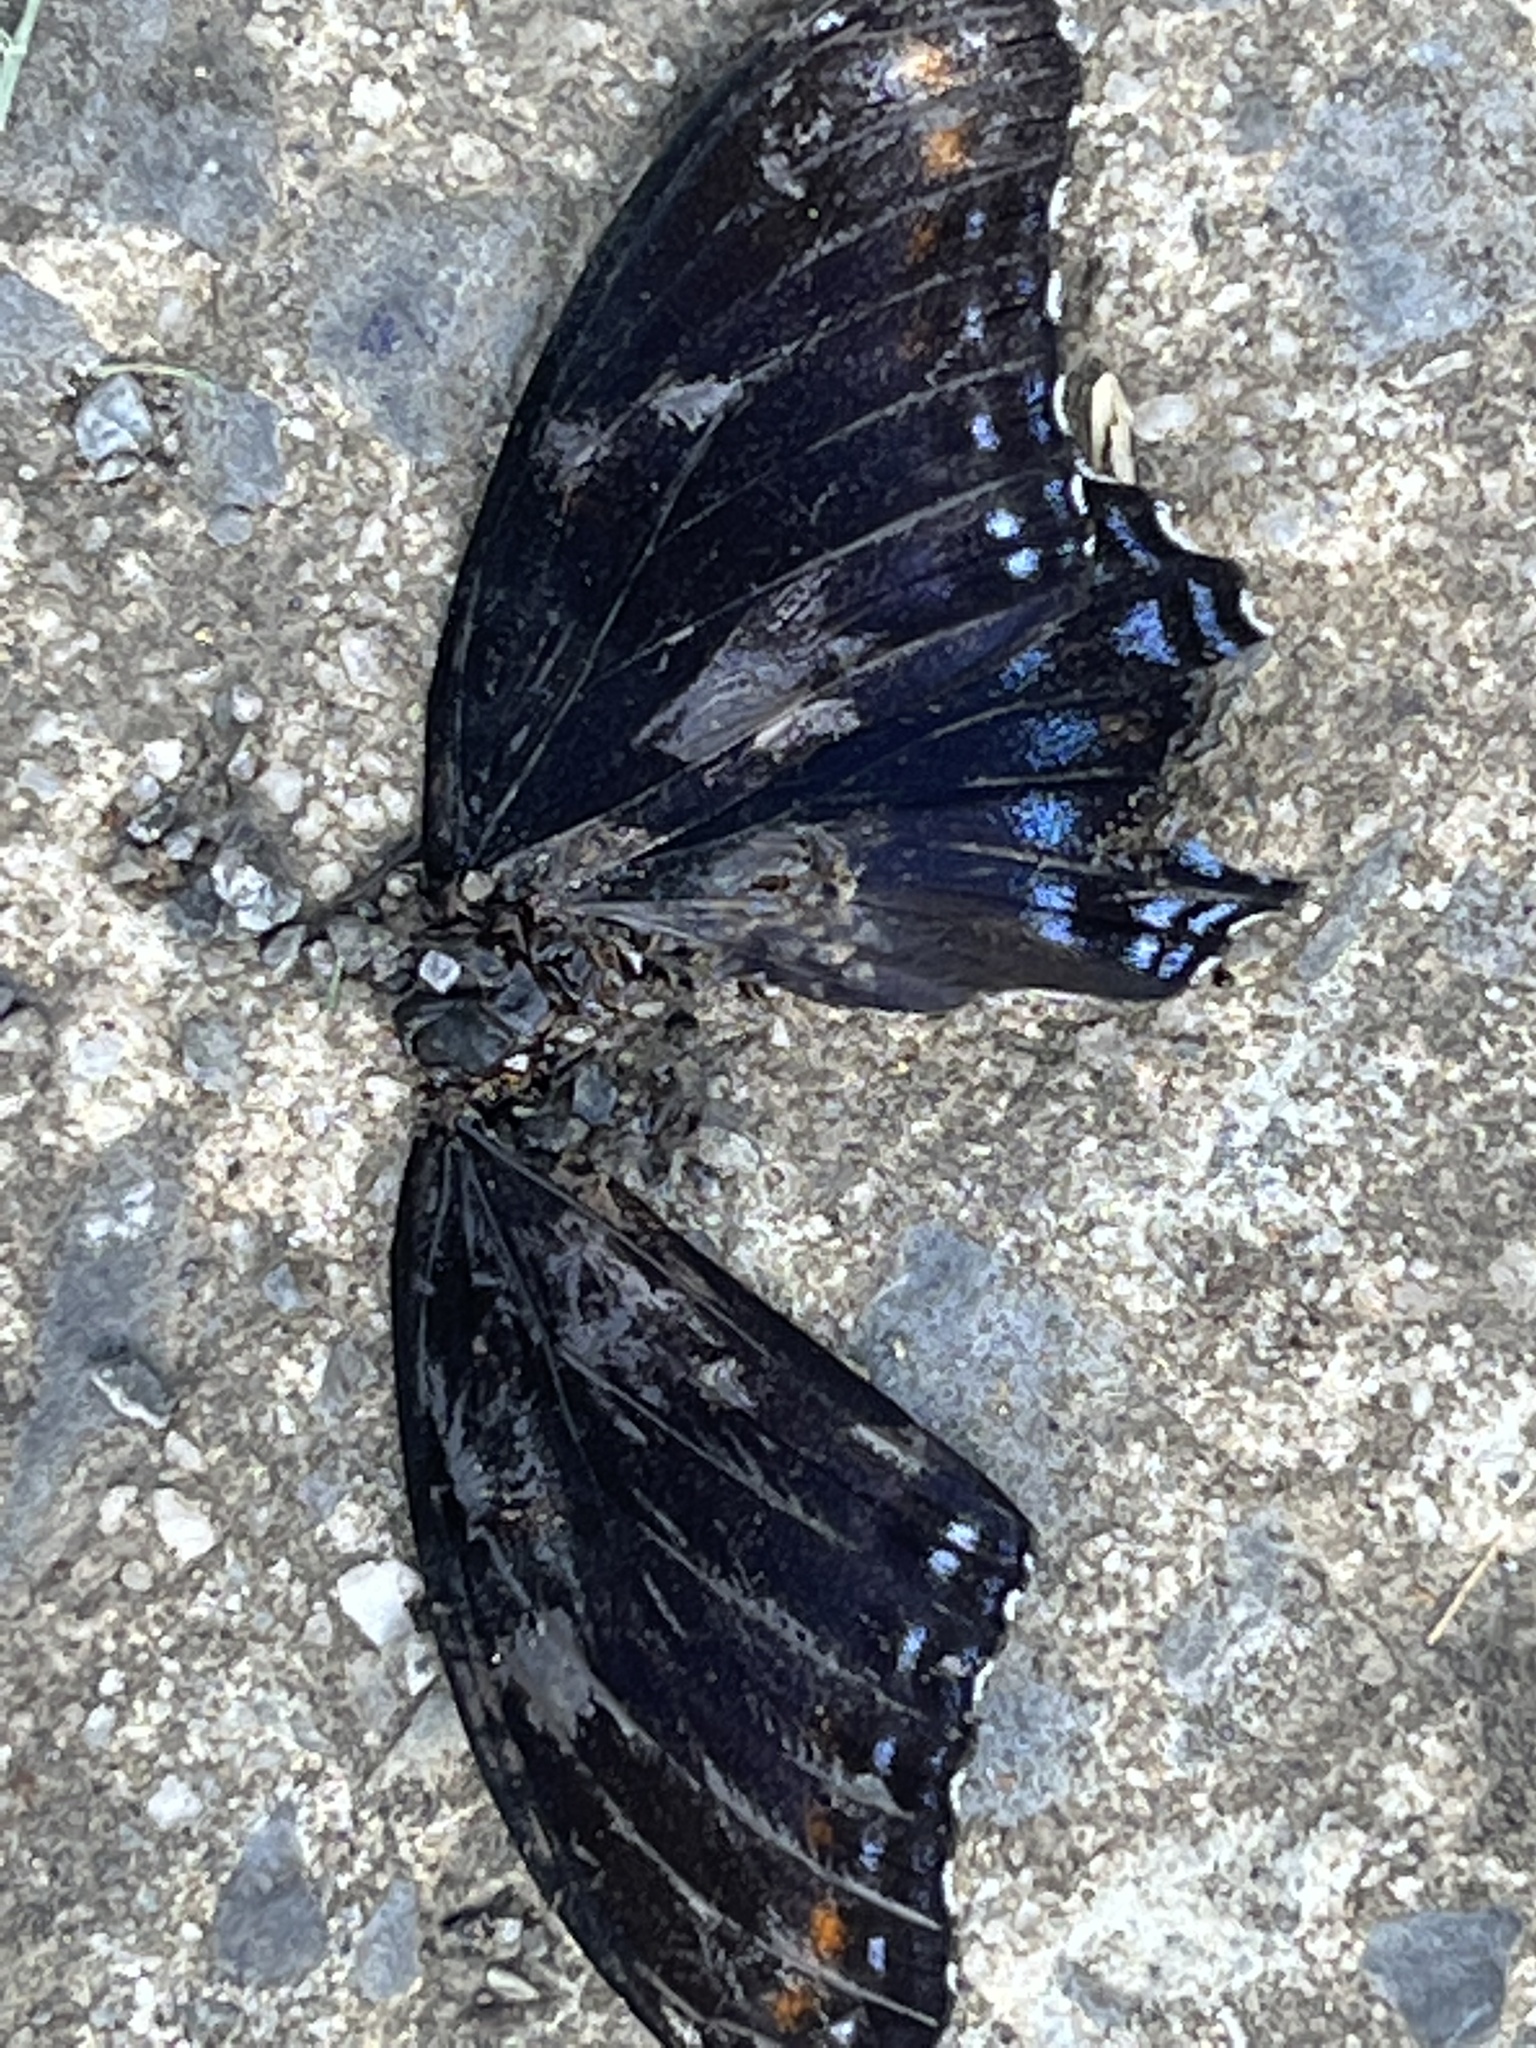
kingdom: Animalia
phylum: Arthropoda
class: Insecta
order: Lepidoptera
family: Nymphalidae
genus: Limenitis
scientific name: Limenitis astyanax
